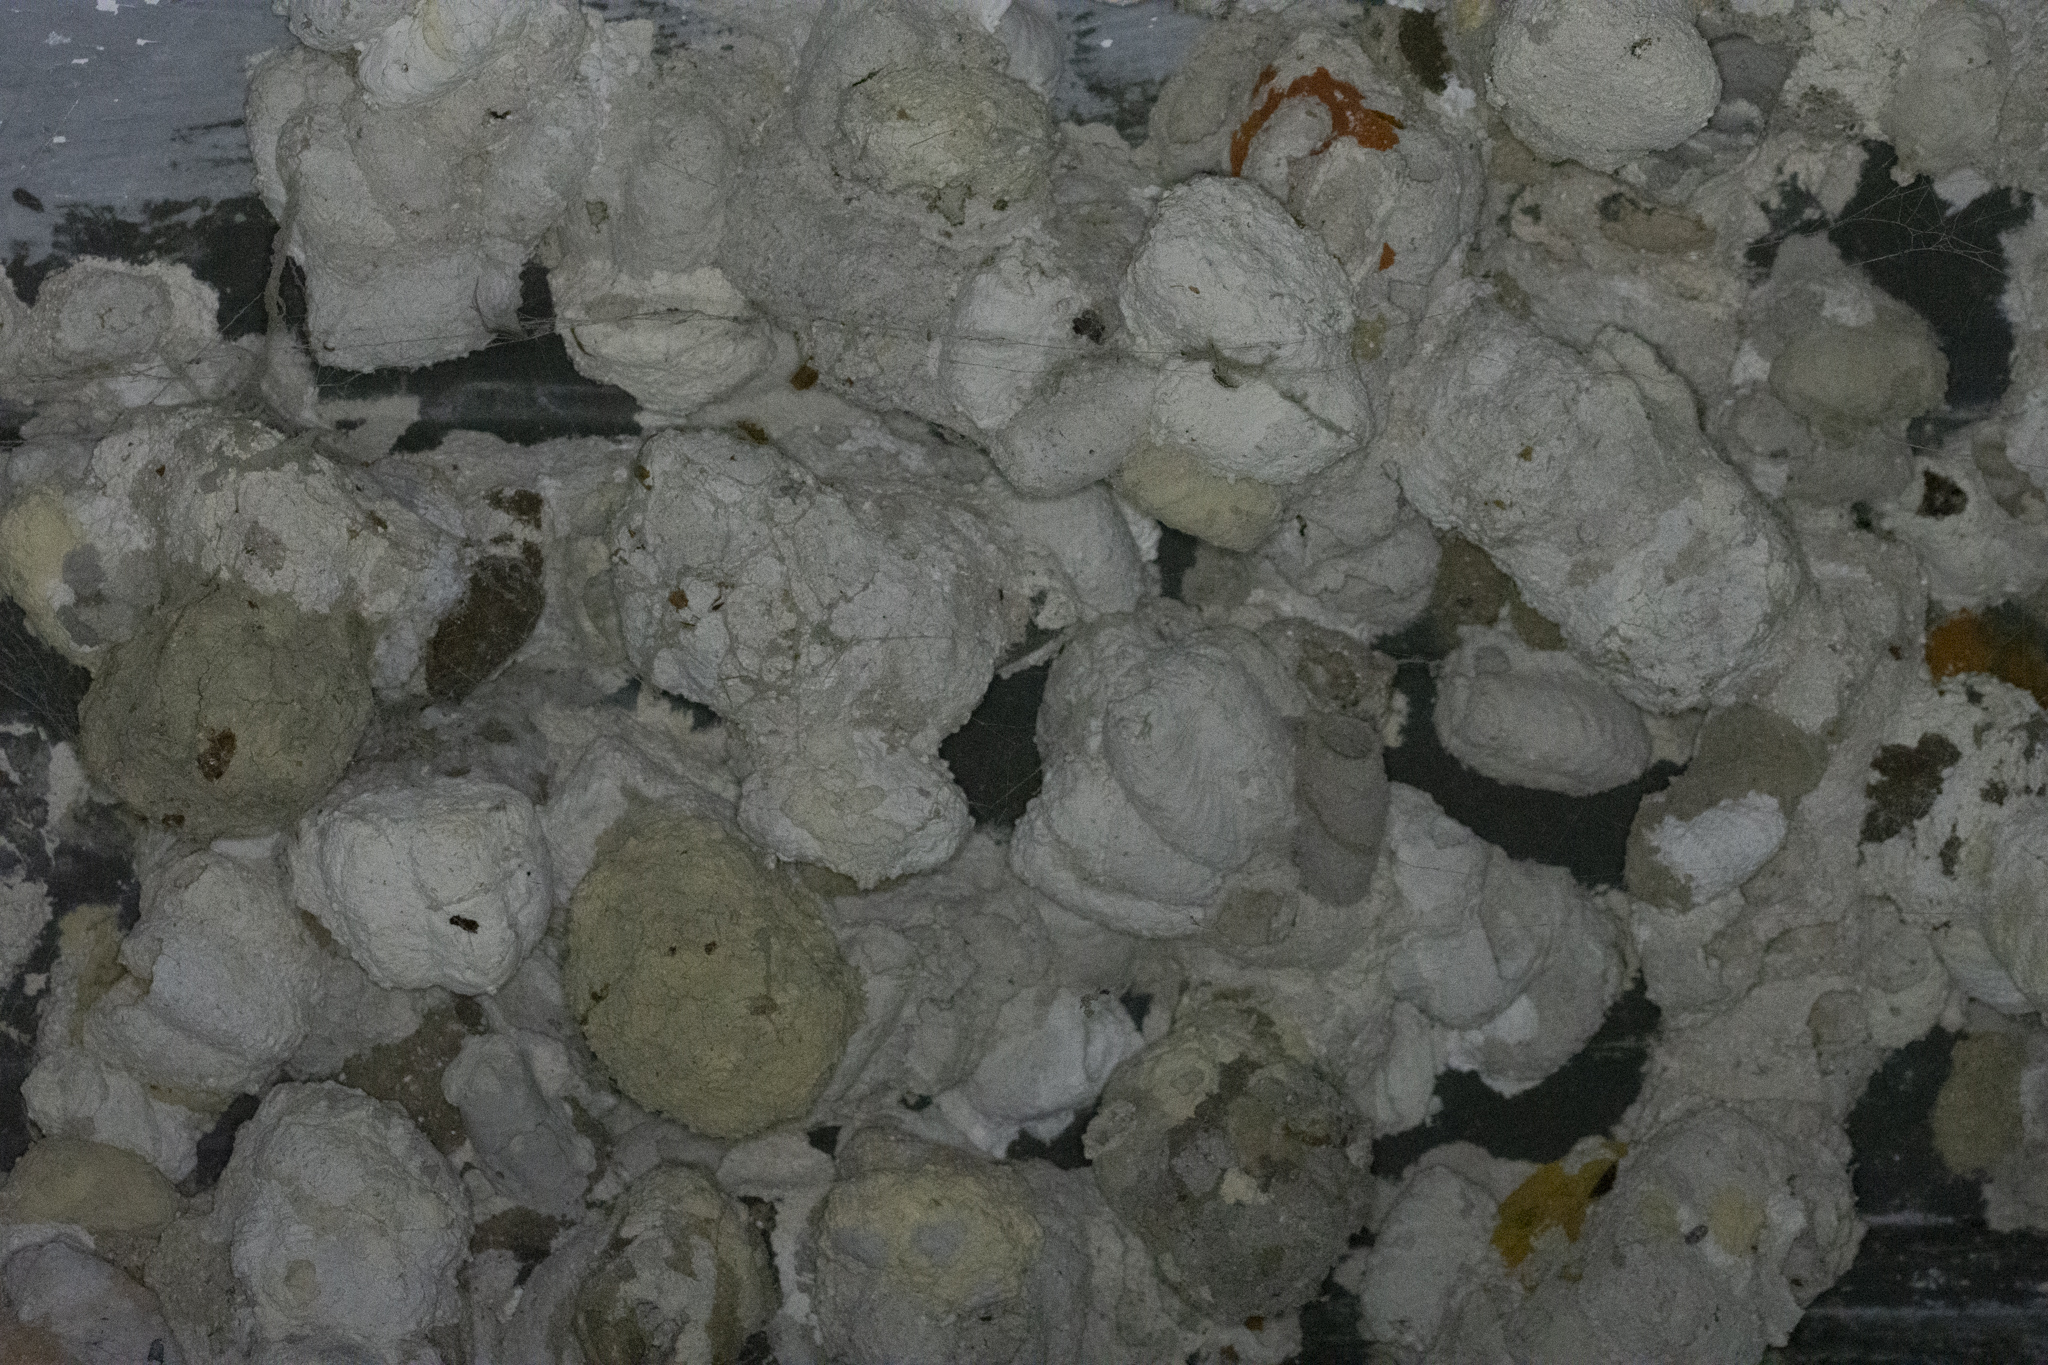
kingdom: Animalia
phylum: Arthropoda
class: Insecta
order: Hymenoptera
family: Sphecidae
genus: Sceliphron
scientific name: Sceliphron laetum
